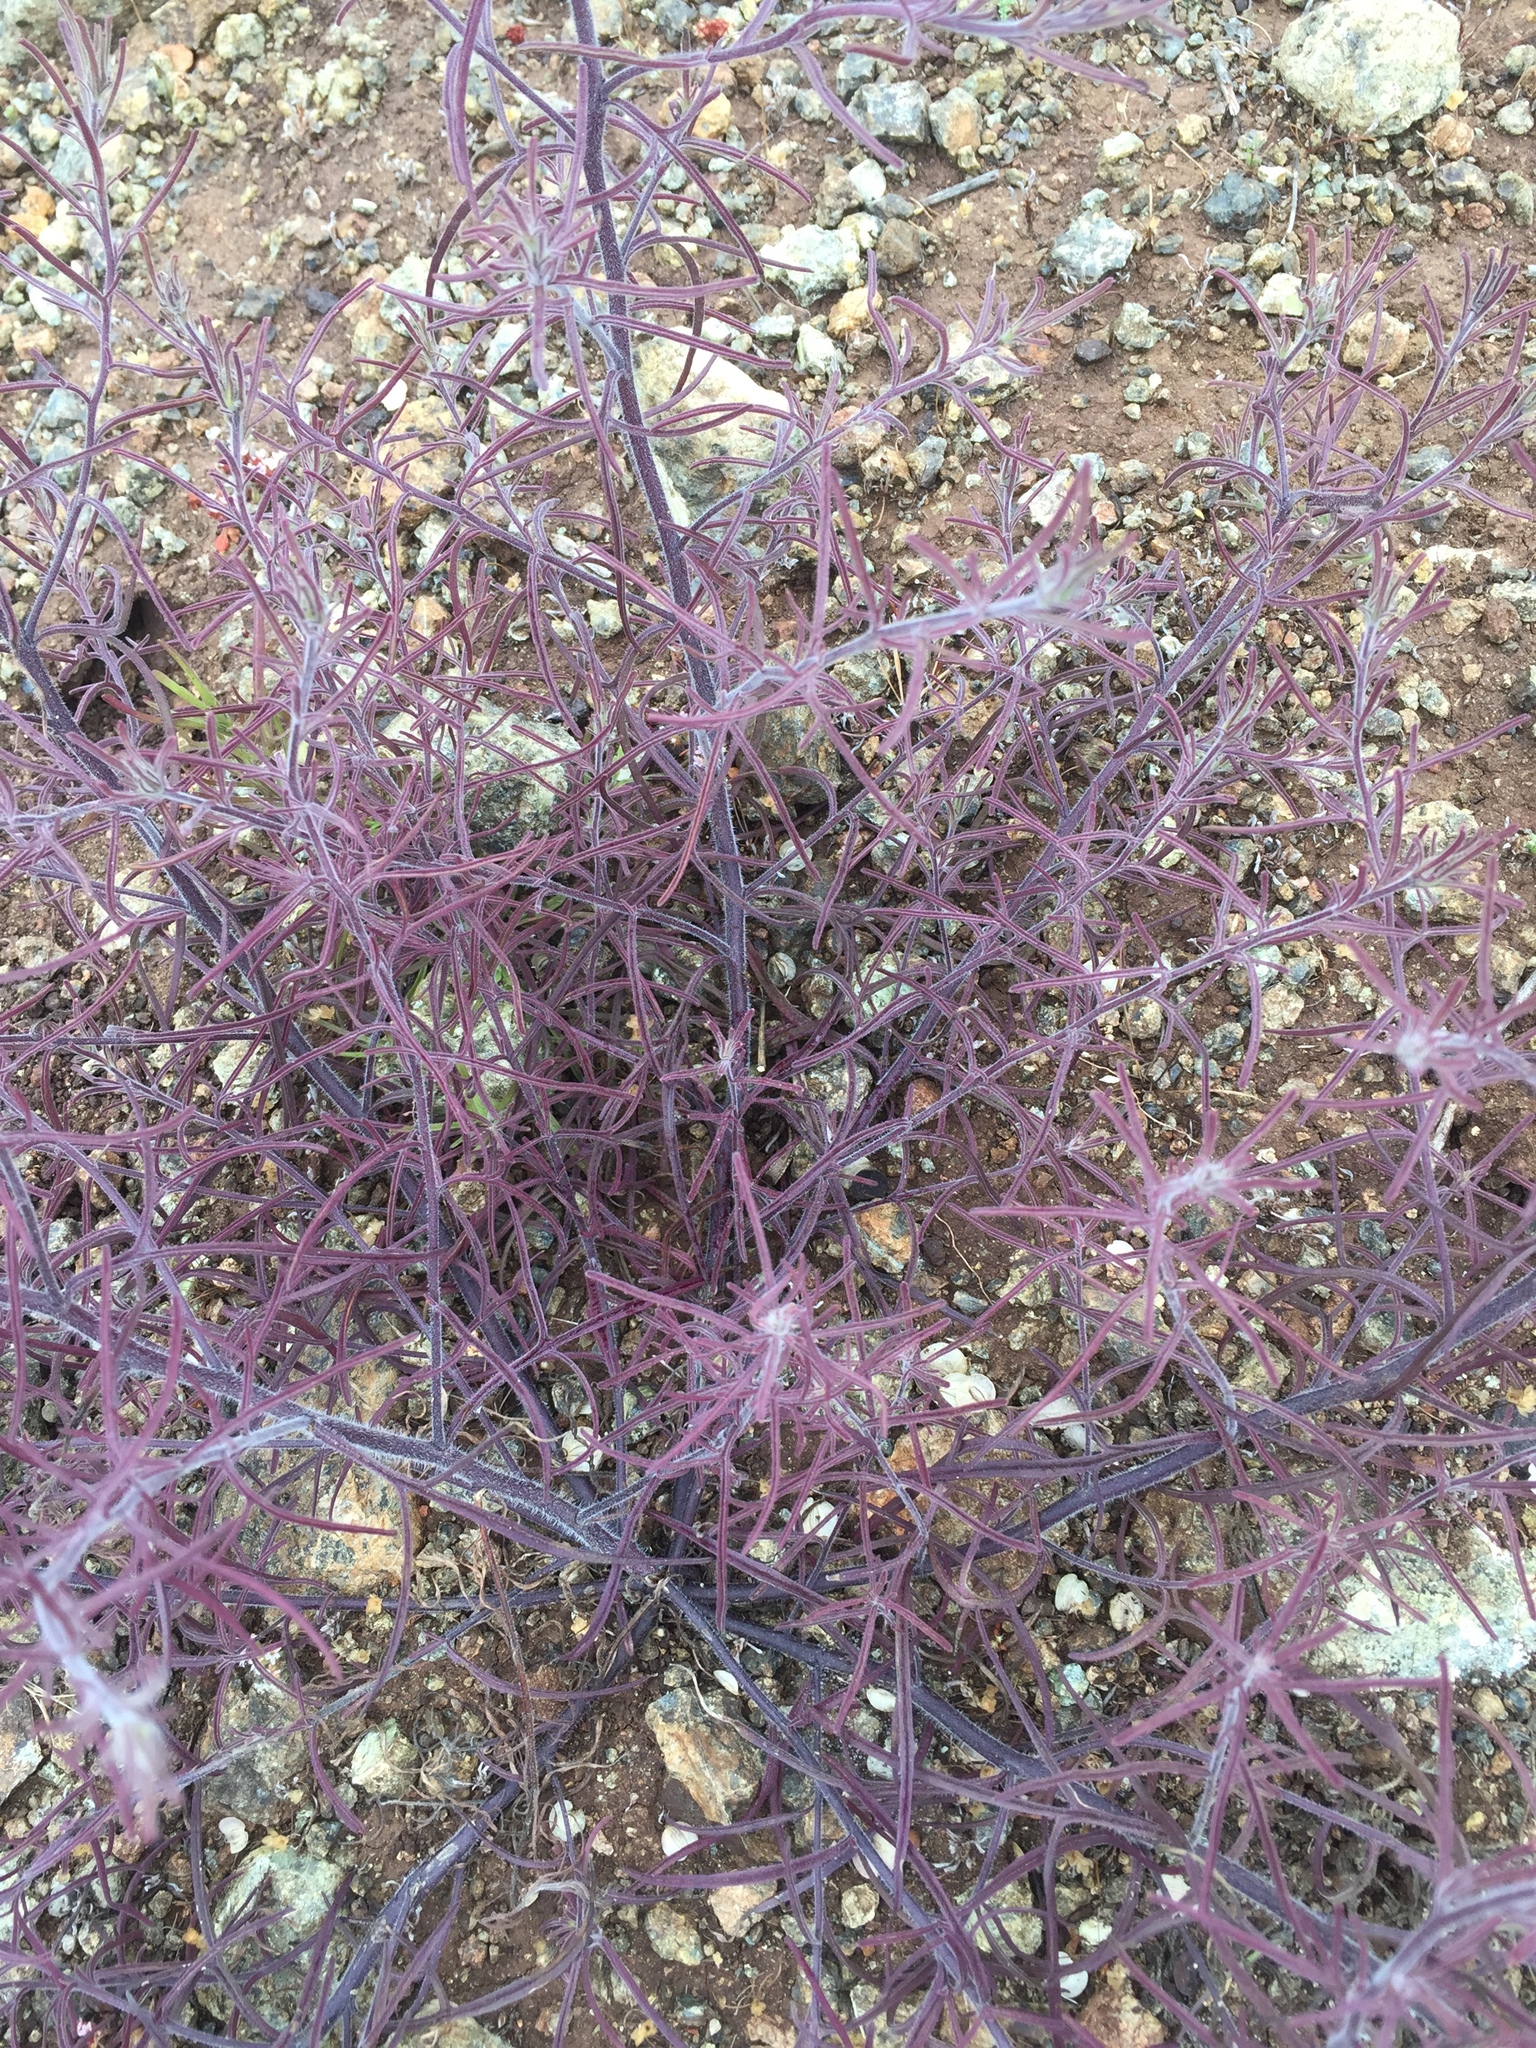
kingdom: Plantae
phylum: Tracheophyta
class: Magnoliopsida
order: Lamiales
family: Orobanchaceae
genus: Cordylanthus
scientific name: Cordylanthus rigidus
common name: Stiff-branch bird's-beak
